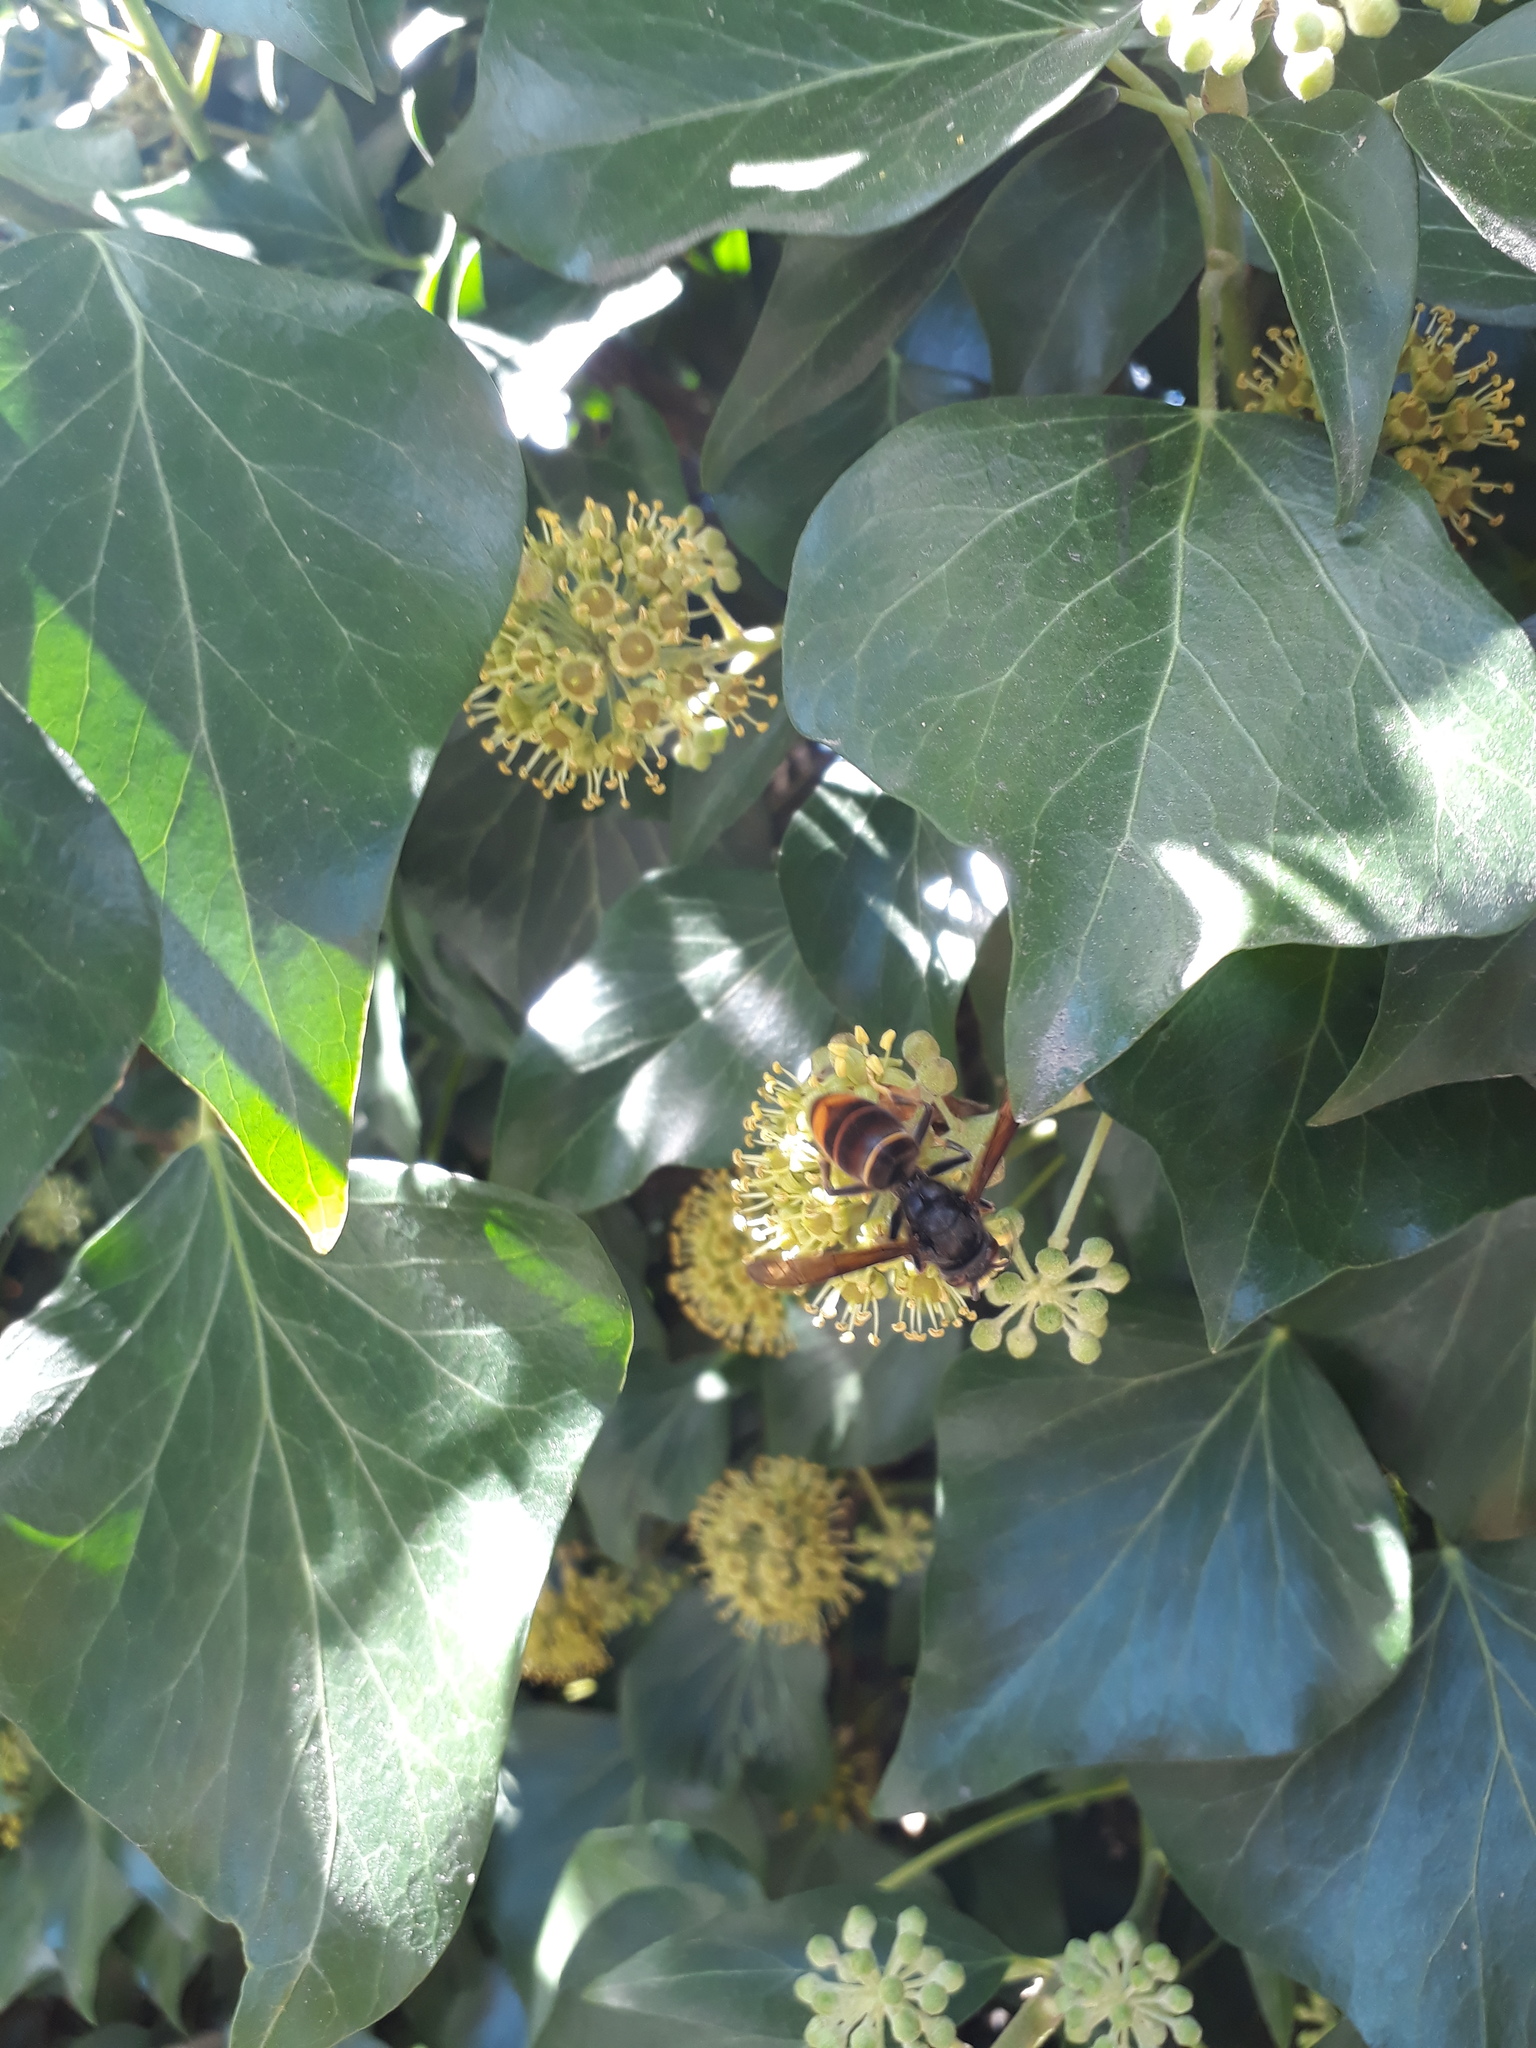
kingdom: Animalia
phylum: Arthropoda
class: Insecta
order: Hymenoptera
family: Vespidae
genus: Vespa
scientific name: Vespa velutina
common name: Asian hornet
